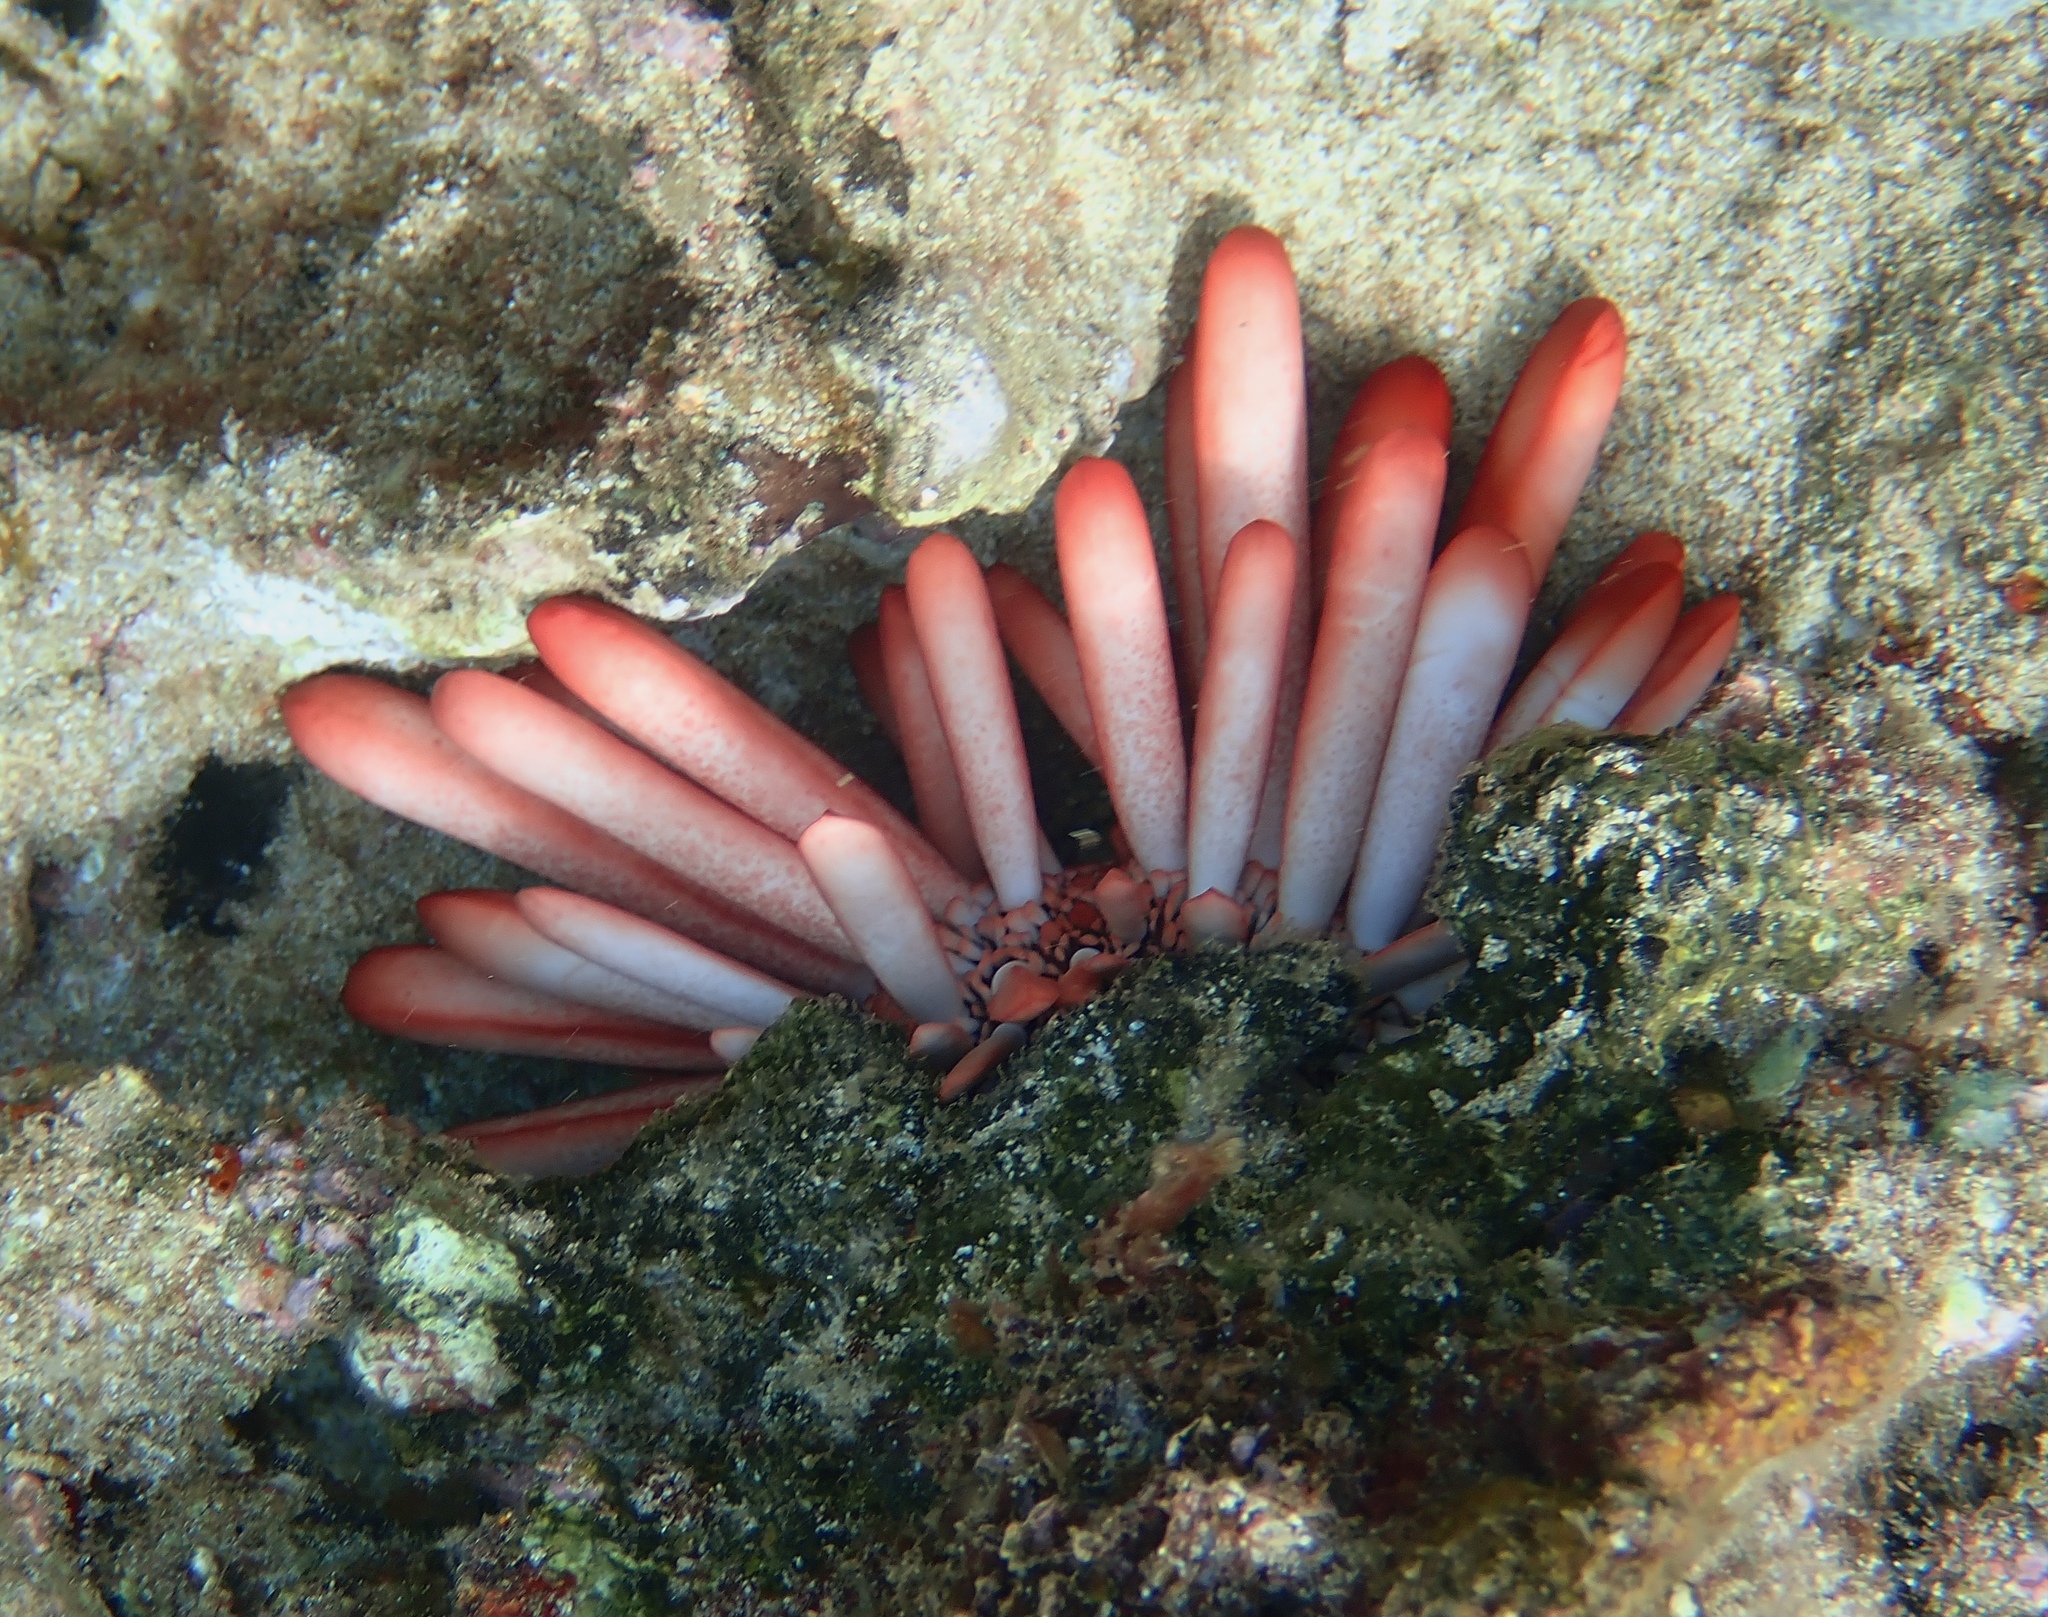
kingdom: Animalia
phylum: Echinodermata
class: Echinoidea
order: Camarodonta
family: Echinometridae
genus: Heterocentrotus
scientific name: Heterocentrotus mamillatus
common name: Slate pencil urchin
